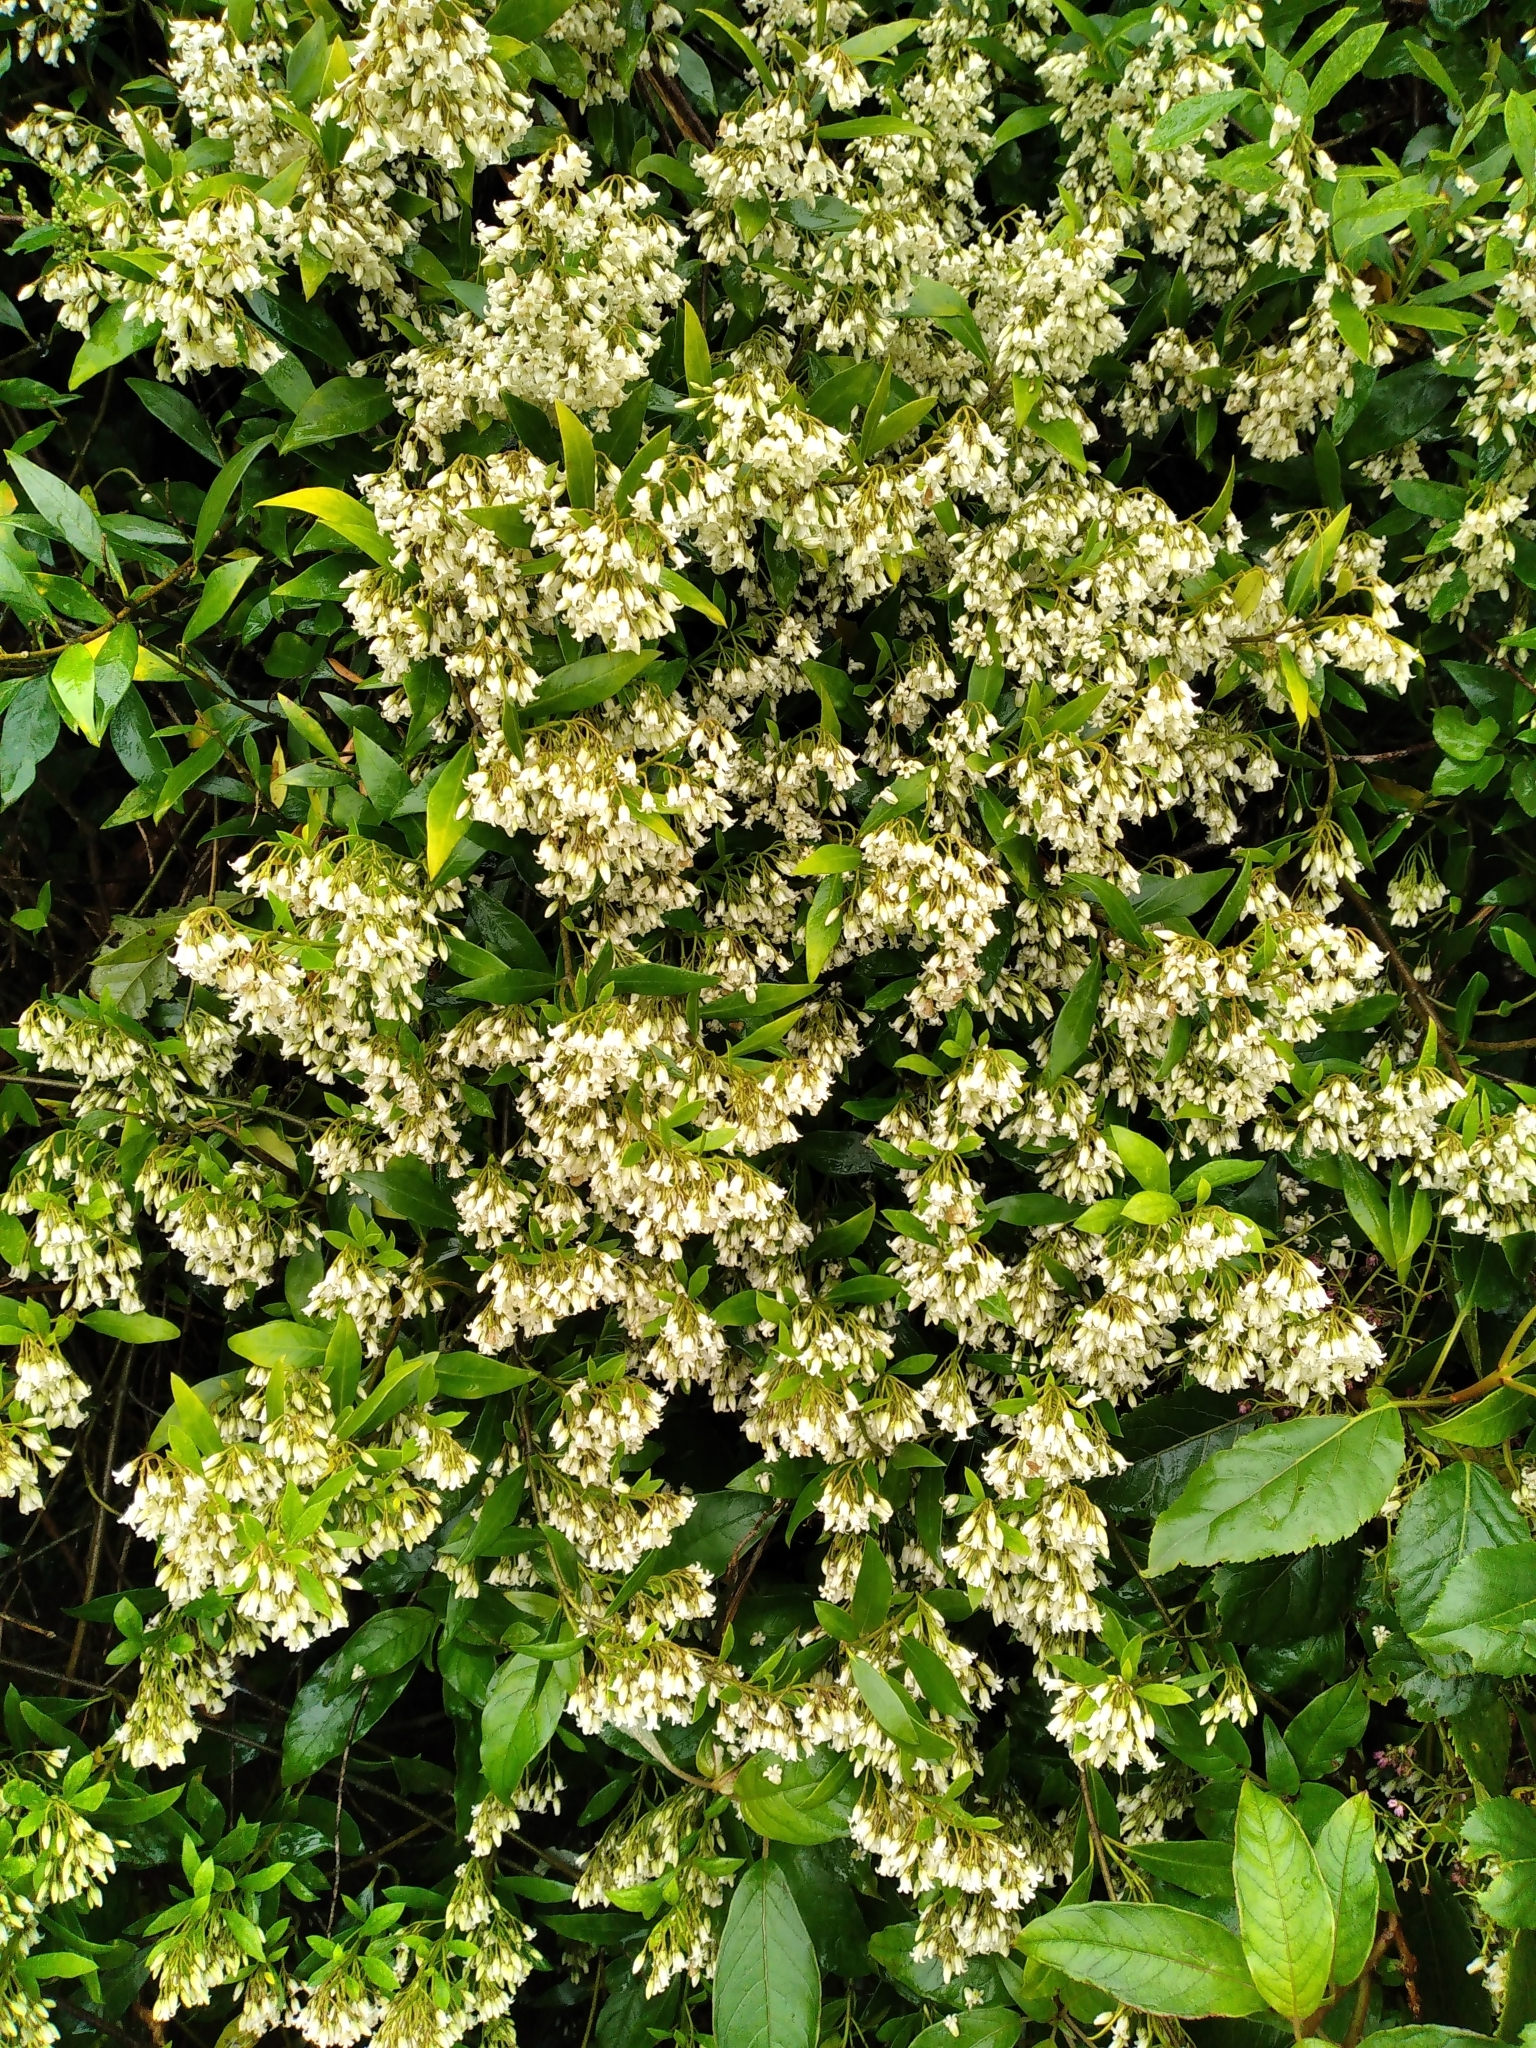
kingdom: Plantae
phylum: Tracheophyta
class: Magnoliopsida
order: Gentianales
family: Apocynaceae
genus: Parsonsia
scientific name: Parsonsia heterophylla
